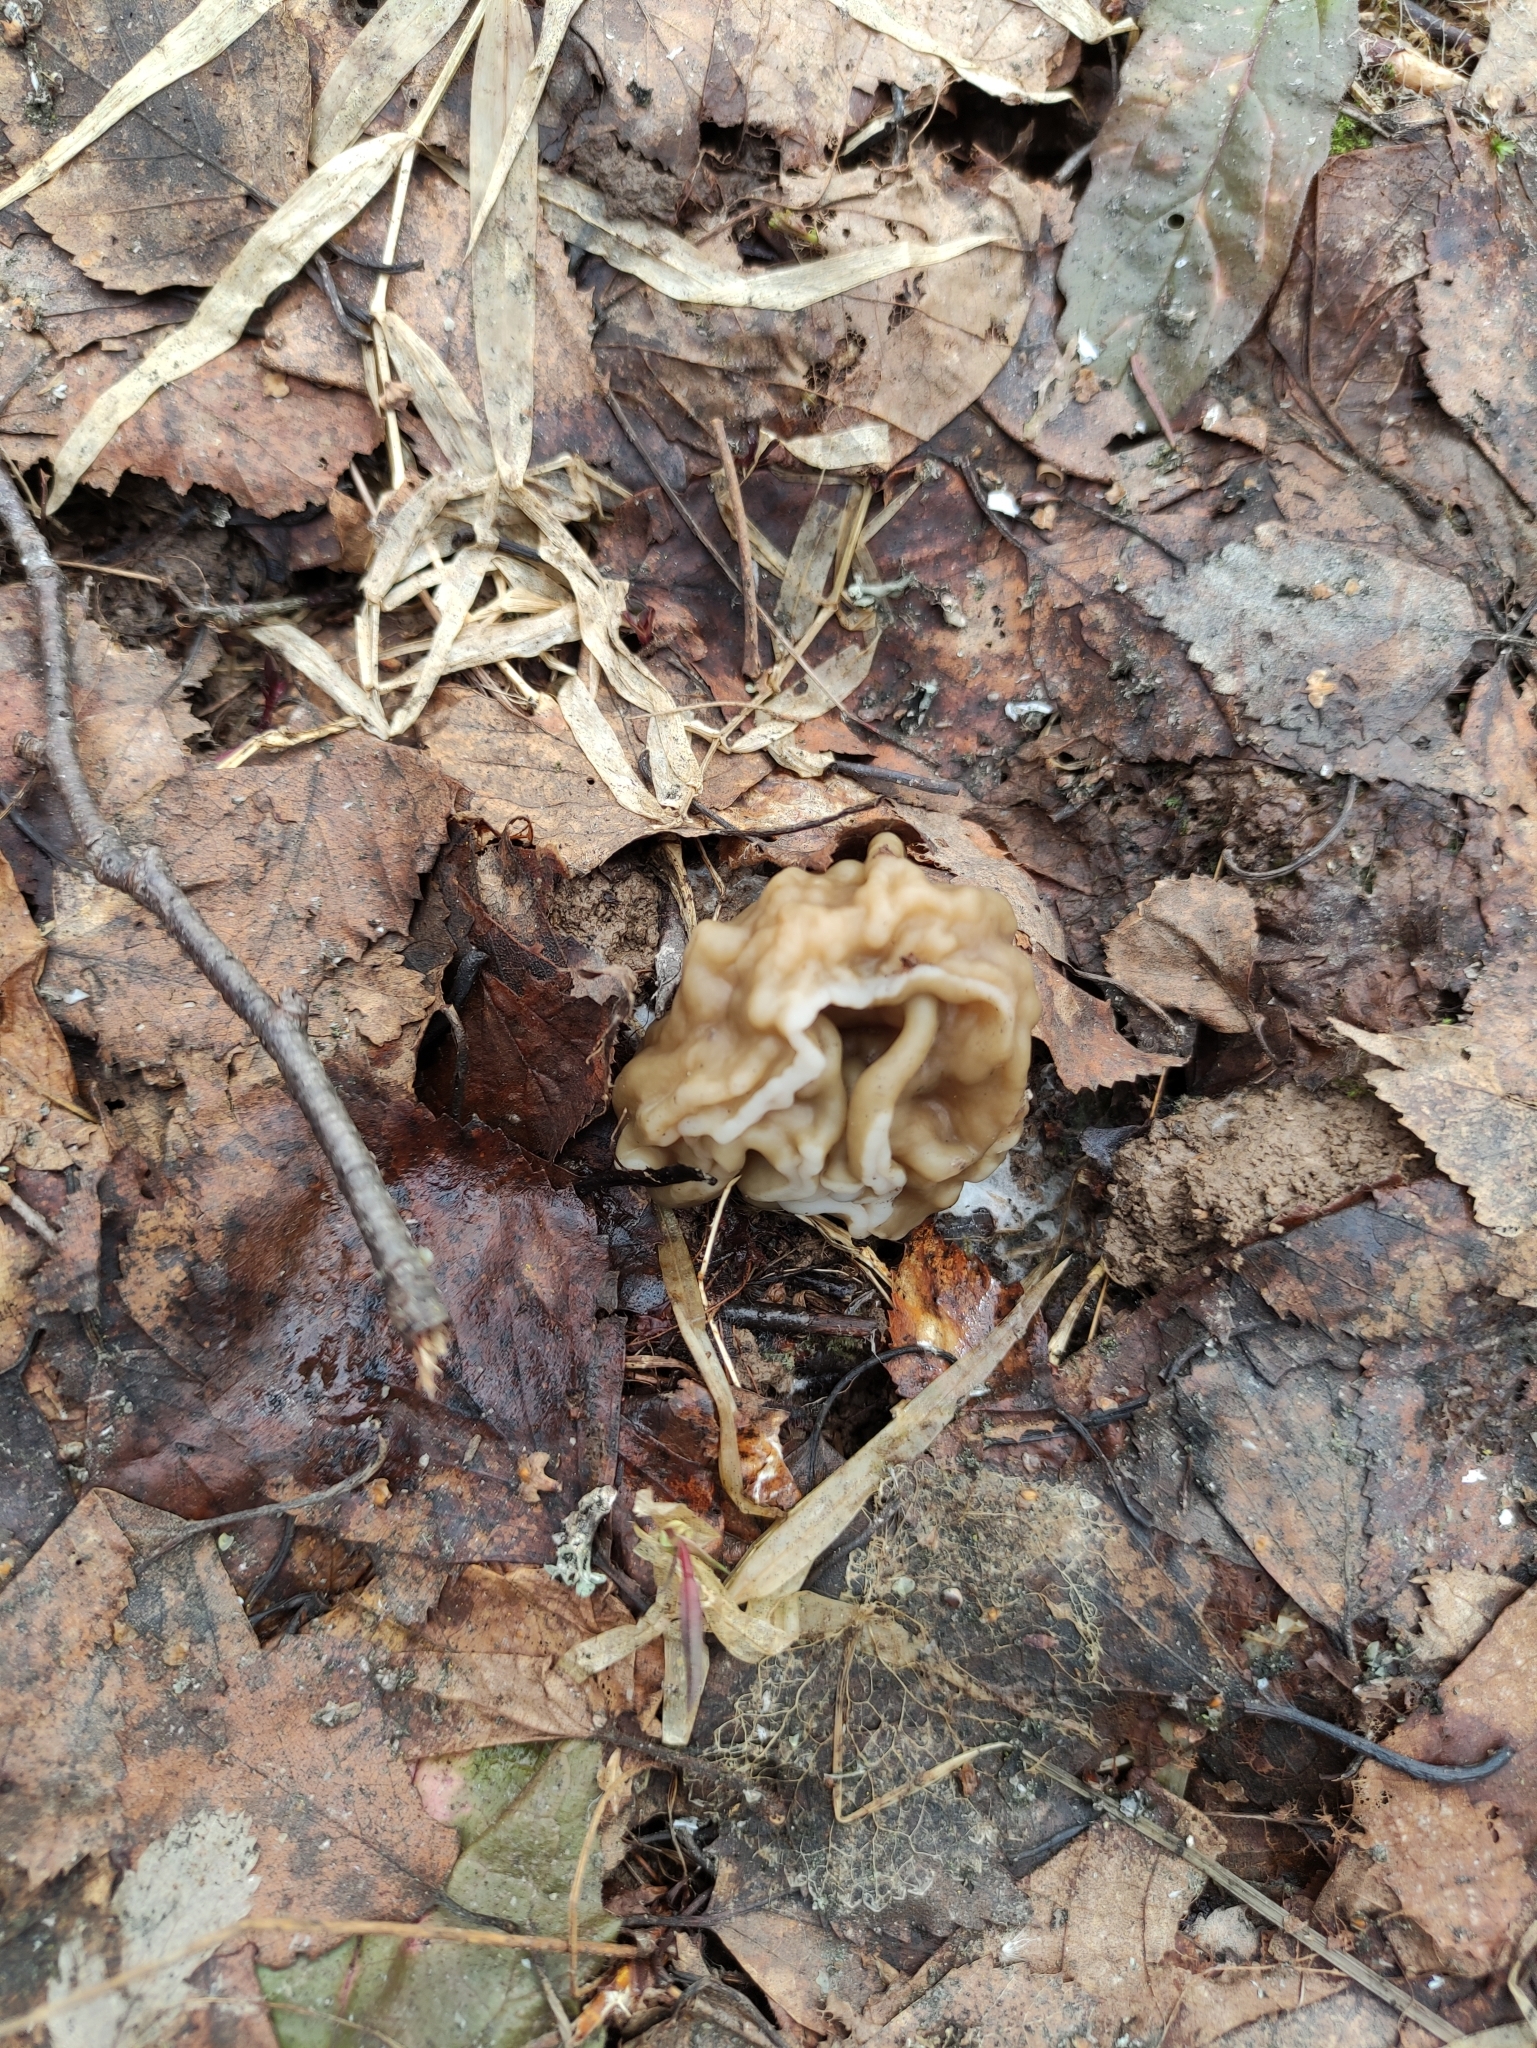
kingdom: Fungi
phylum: Ascomycota
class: Pezizomycetes
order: Pezizales
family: Discinaceae
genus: Gyromitra
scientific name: Gyromitra gigas
